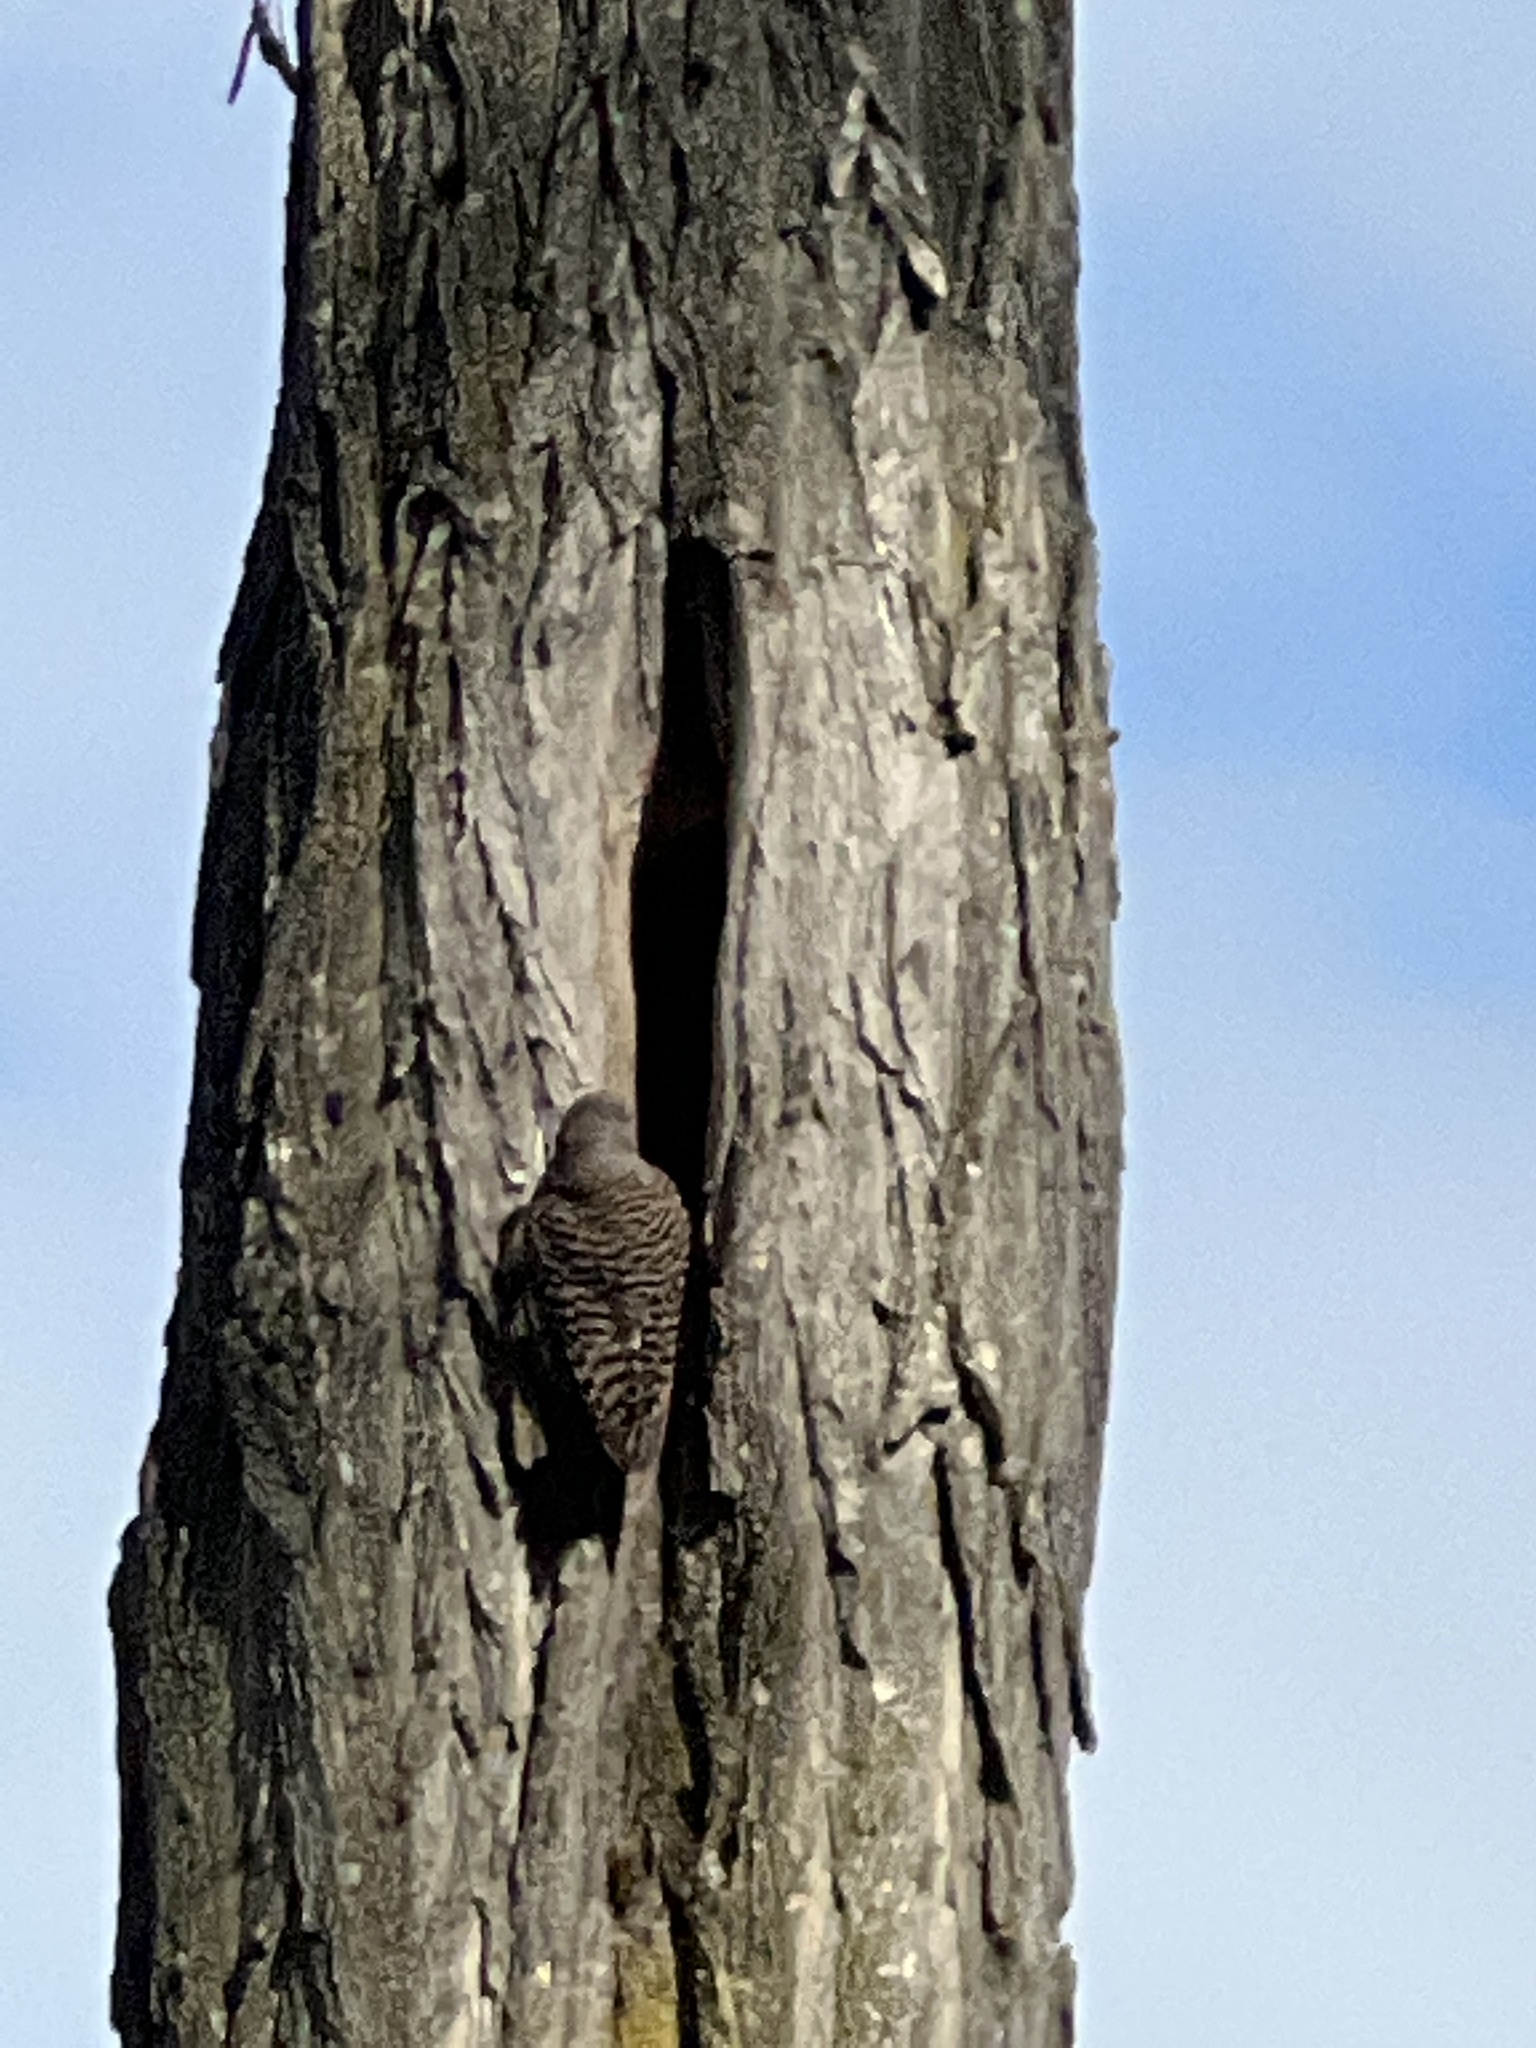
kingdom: Animalia
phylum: Chordata
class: Aves
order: Piciformes
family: Picidae
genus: Colaptes
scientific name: Colaptes auratus
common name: Northern flicker
